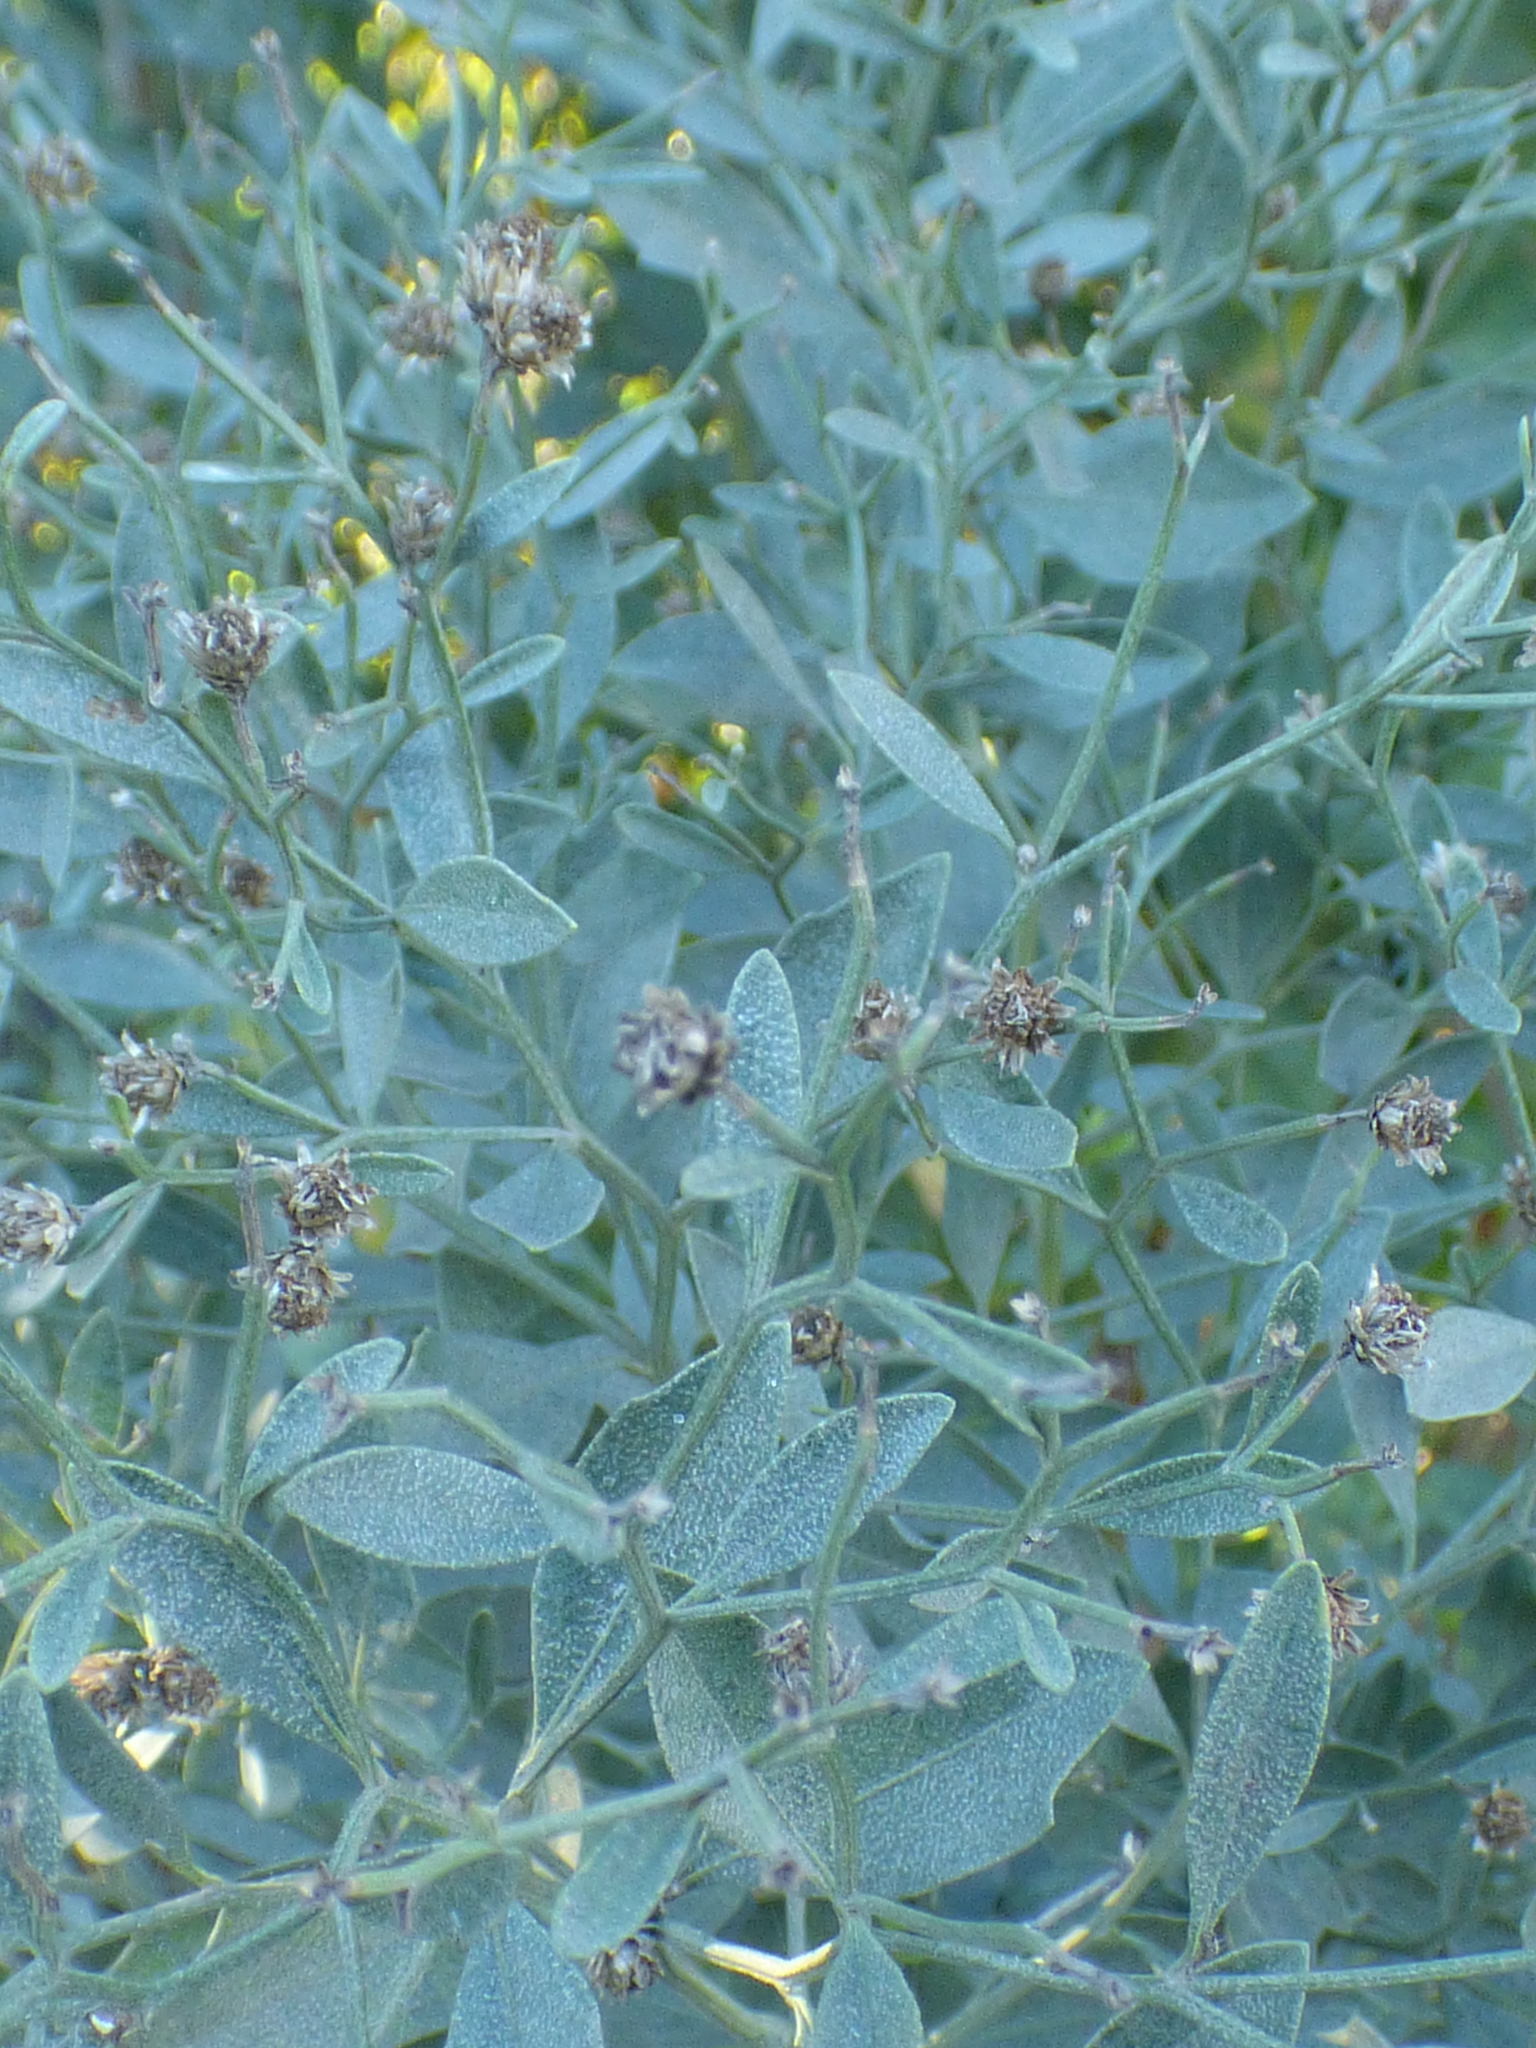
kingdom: Plantae
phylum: Tracheophyta
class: Magnoliopsida
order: Asterales
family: Asteraceae
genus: Baccharis
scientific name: Baccharis halimifolia
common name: Eastern baccharis
